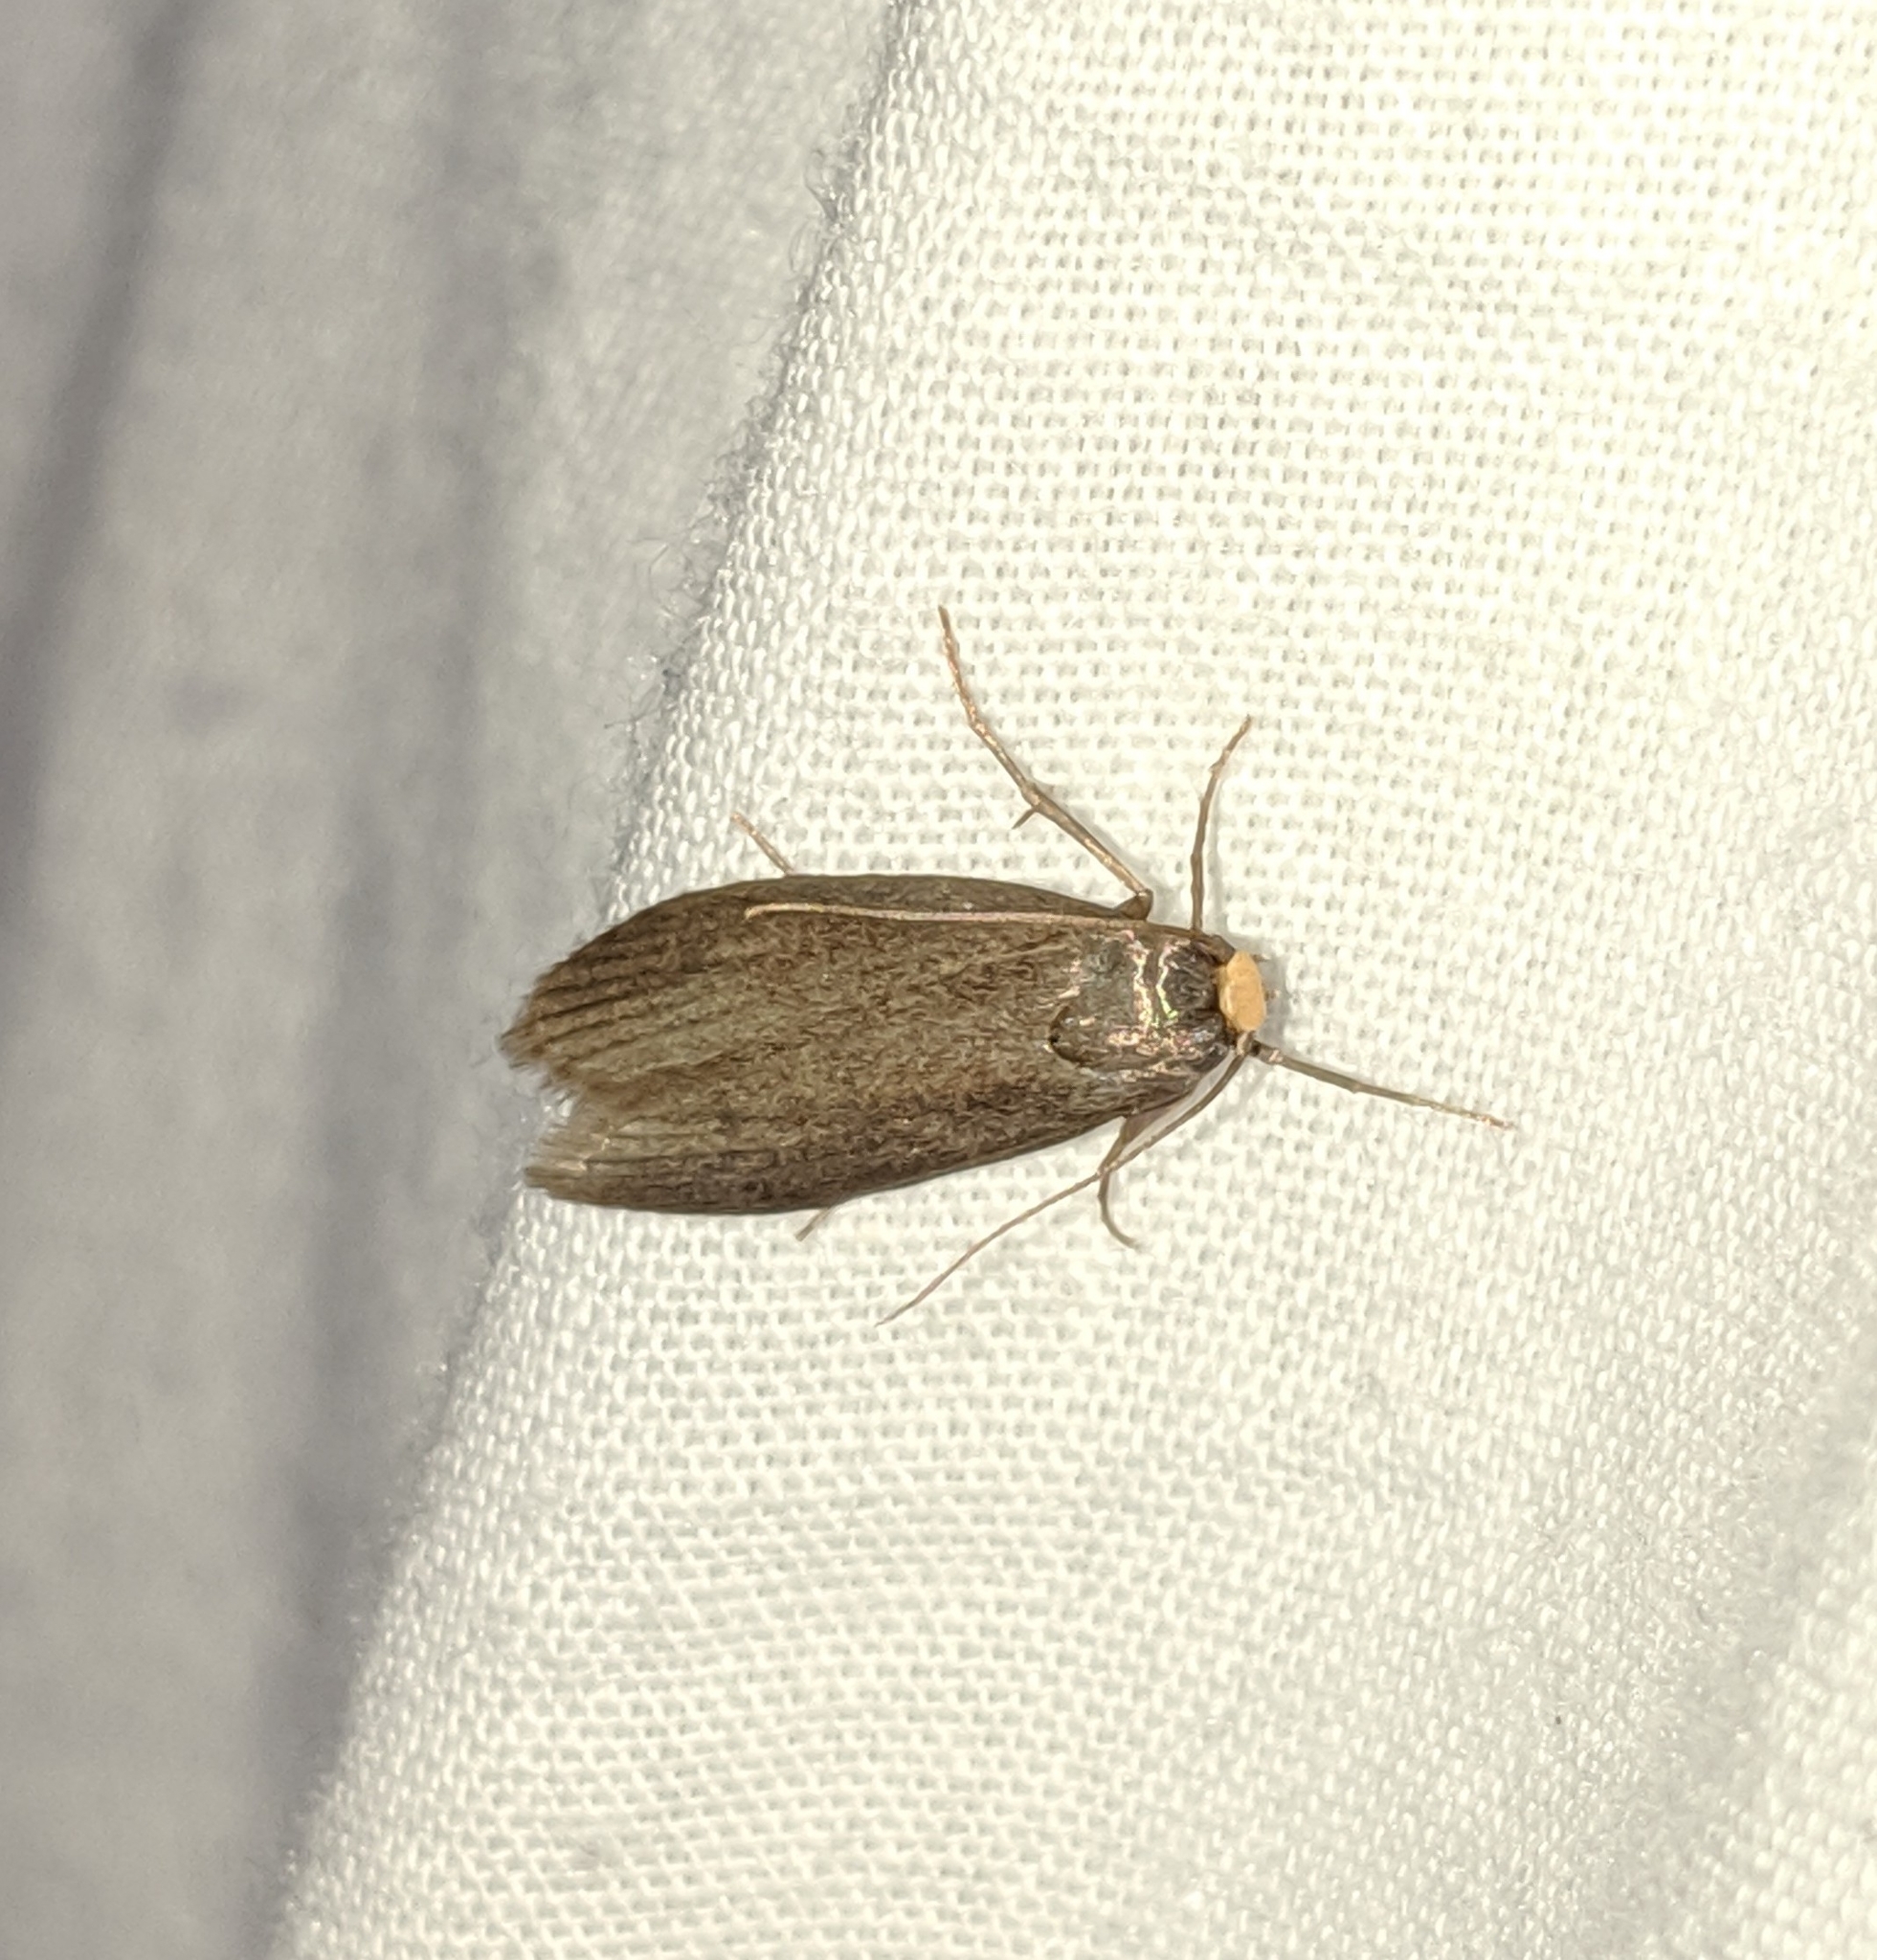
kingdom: Animalia
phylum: Arthropoda
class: Insecta
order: Lepidoptera
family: Pyralidae
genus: Achroia
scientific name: Achroia grisella
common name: Lesser wax moth
